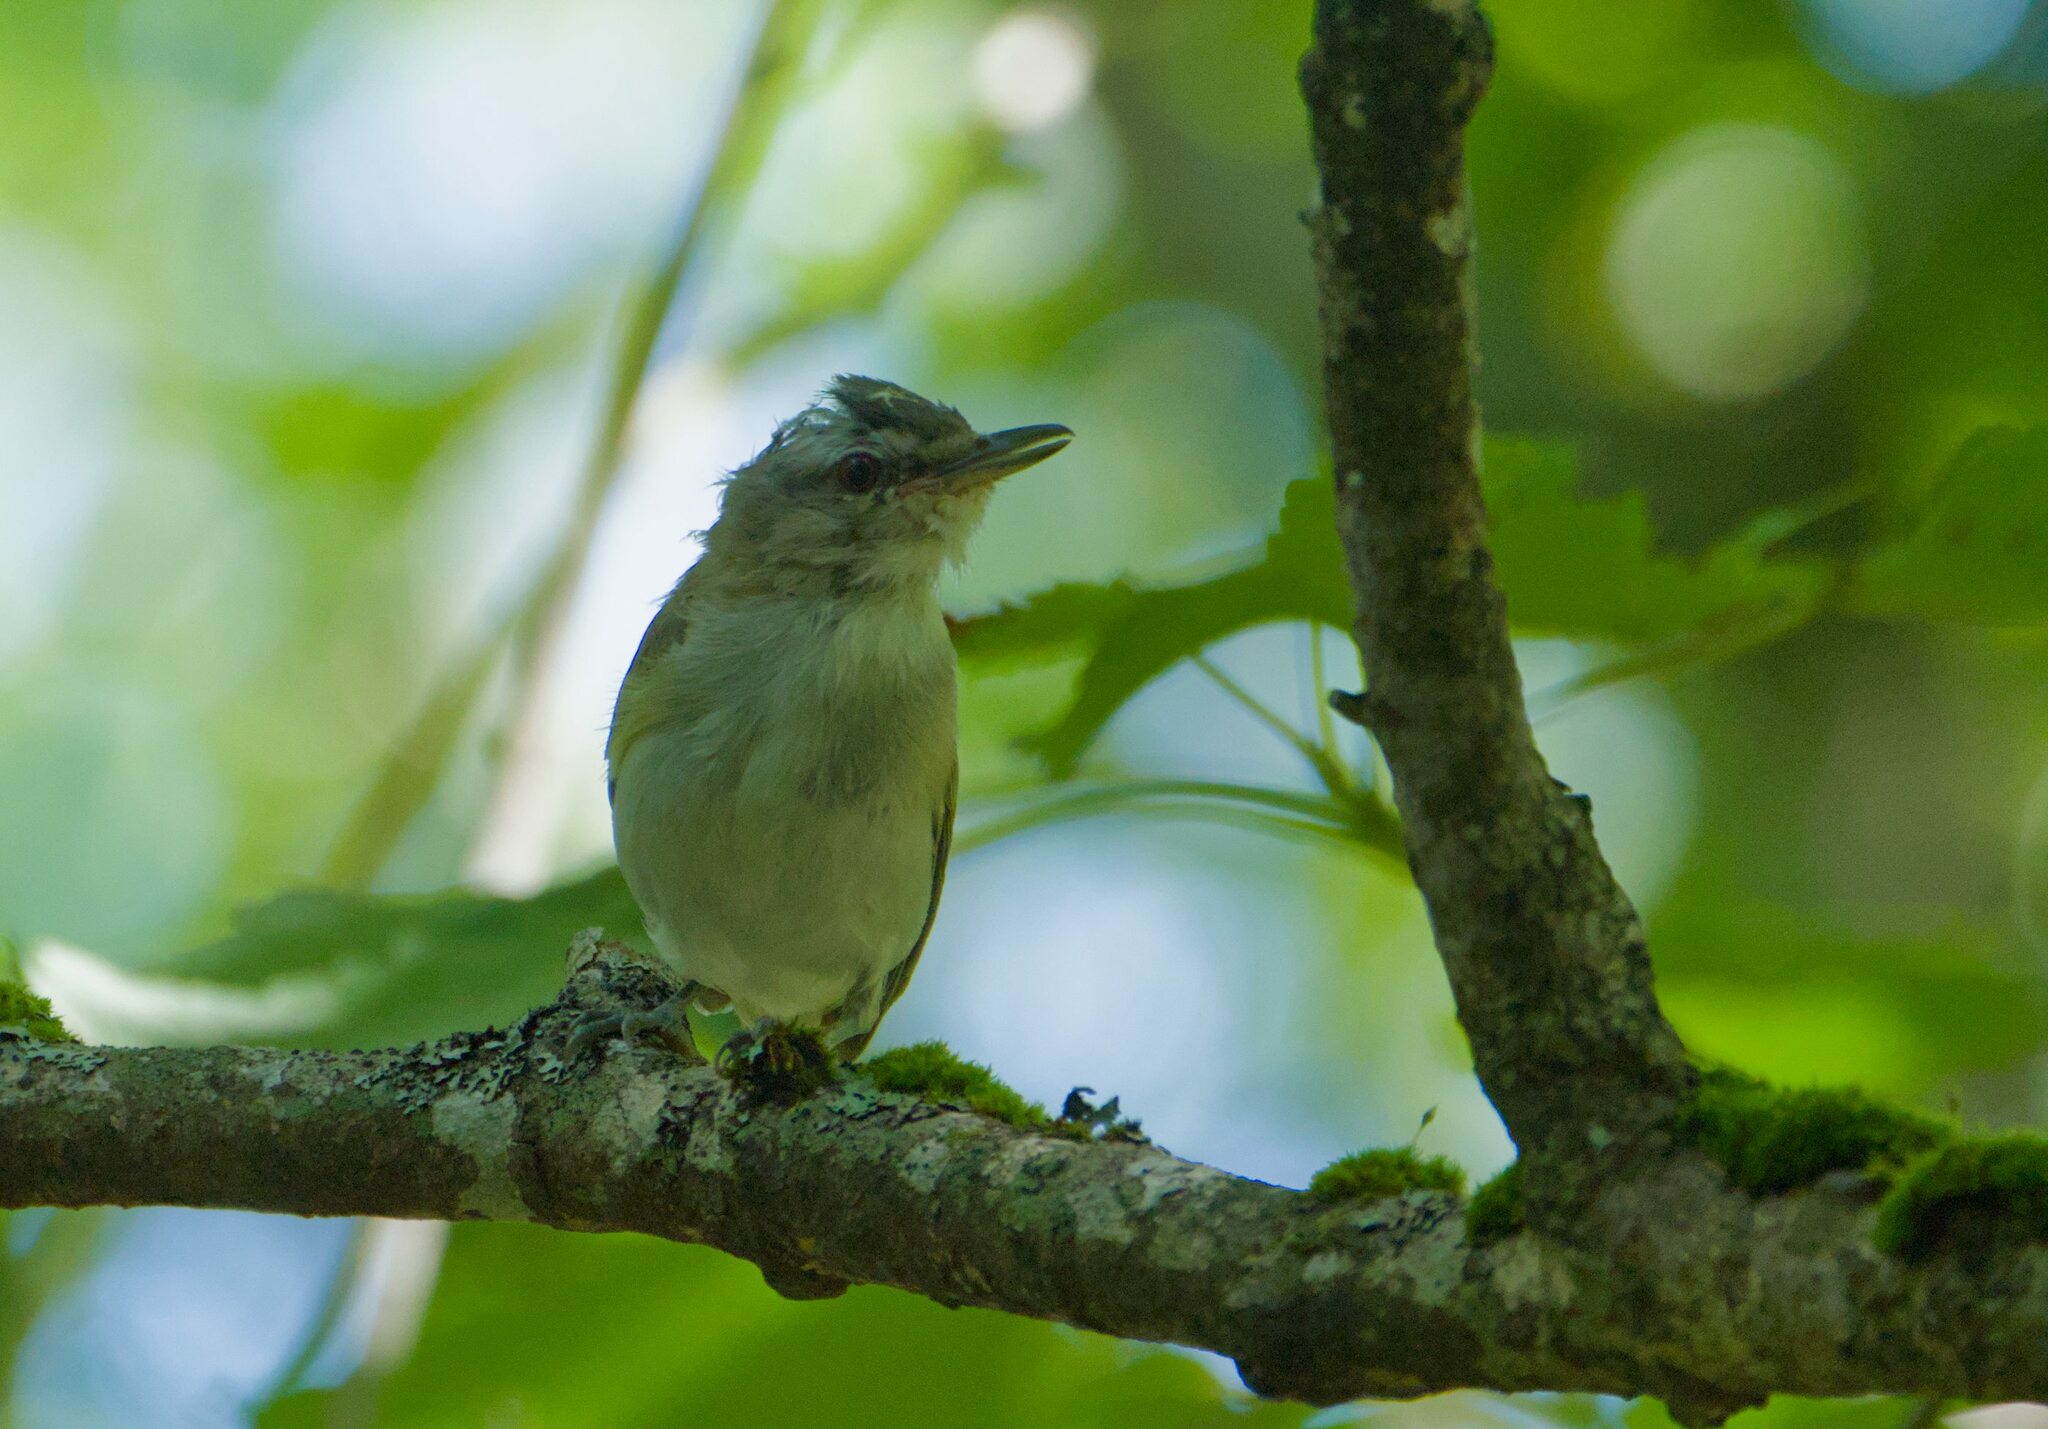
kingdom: Animalia
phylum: Chordata
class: Aves
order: Passeriformes
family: Vireonidae
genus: Vireo
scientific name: Vireo olivaceus
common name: Red-eyed vireo
